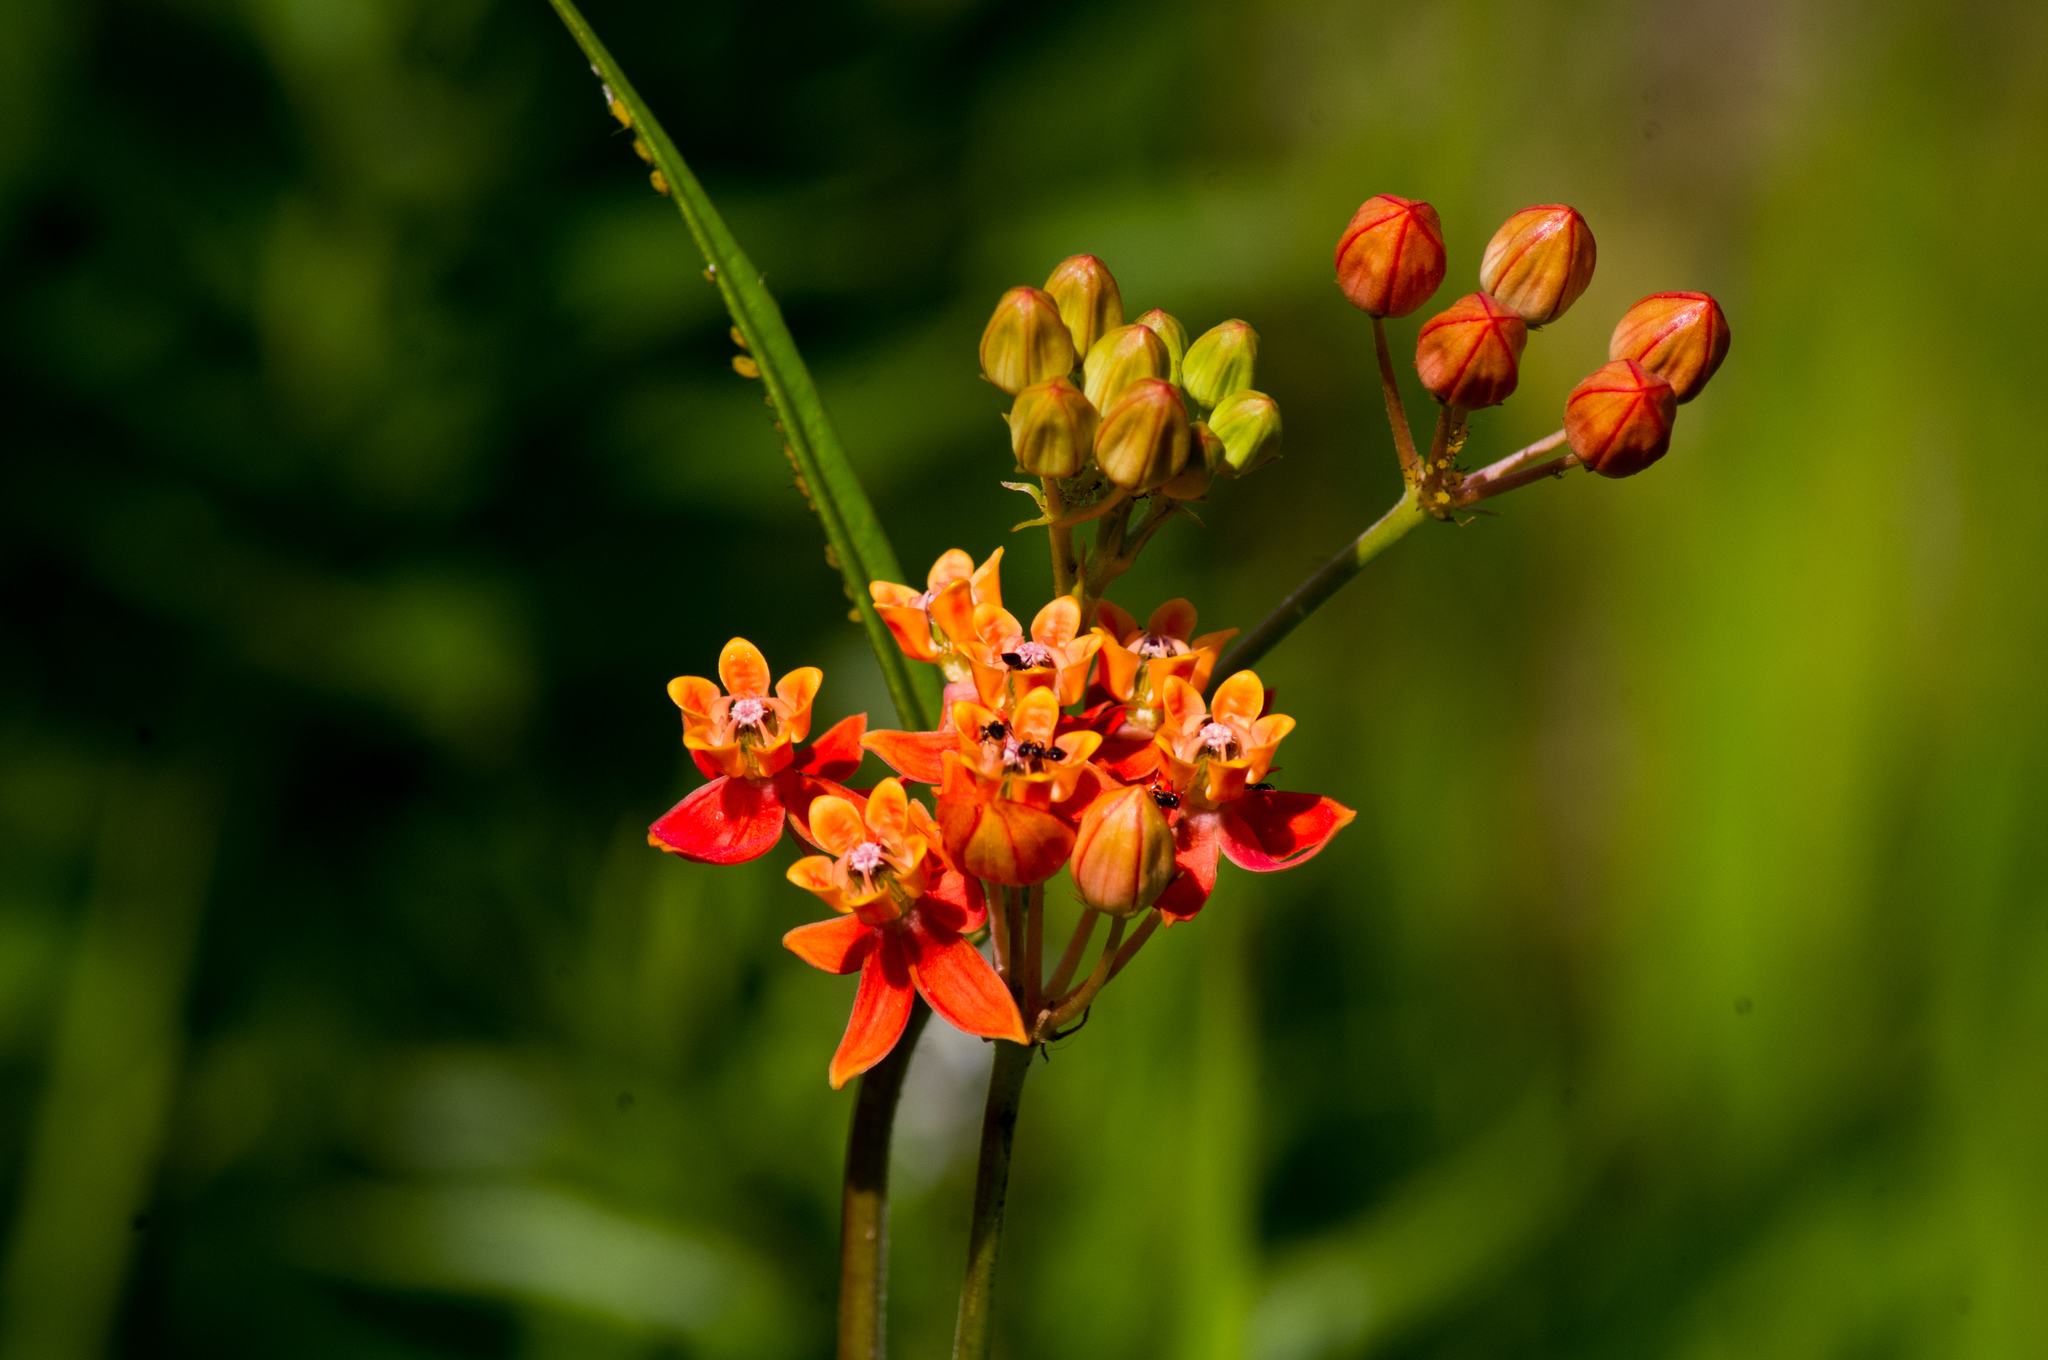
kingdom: Plantae
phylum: Tracheophyta
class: Magnoliopsida
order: Gentianales
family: Apocynaceae
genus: Asclepias
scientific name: Asclepias lanceolata
